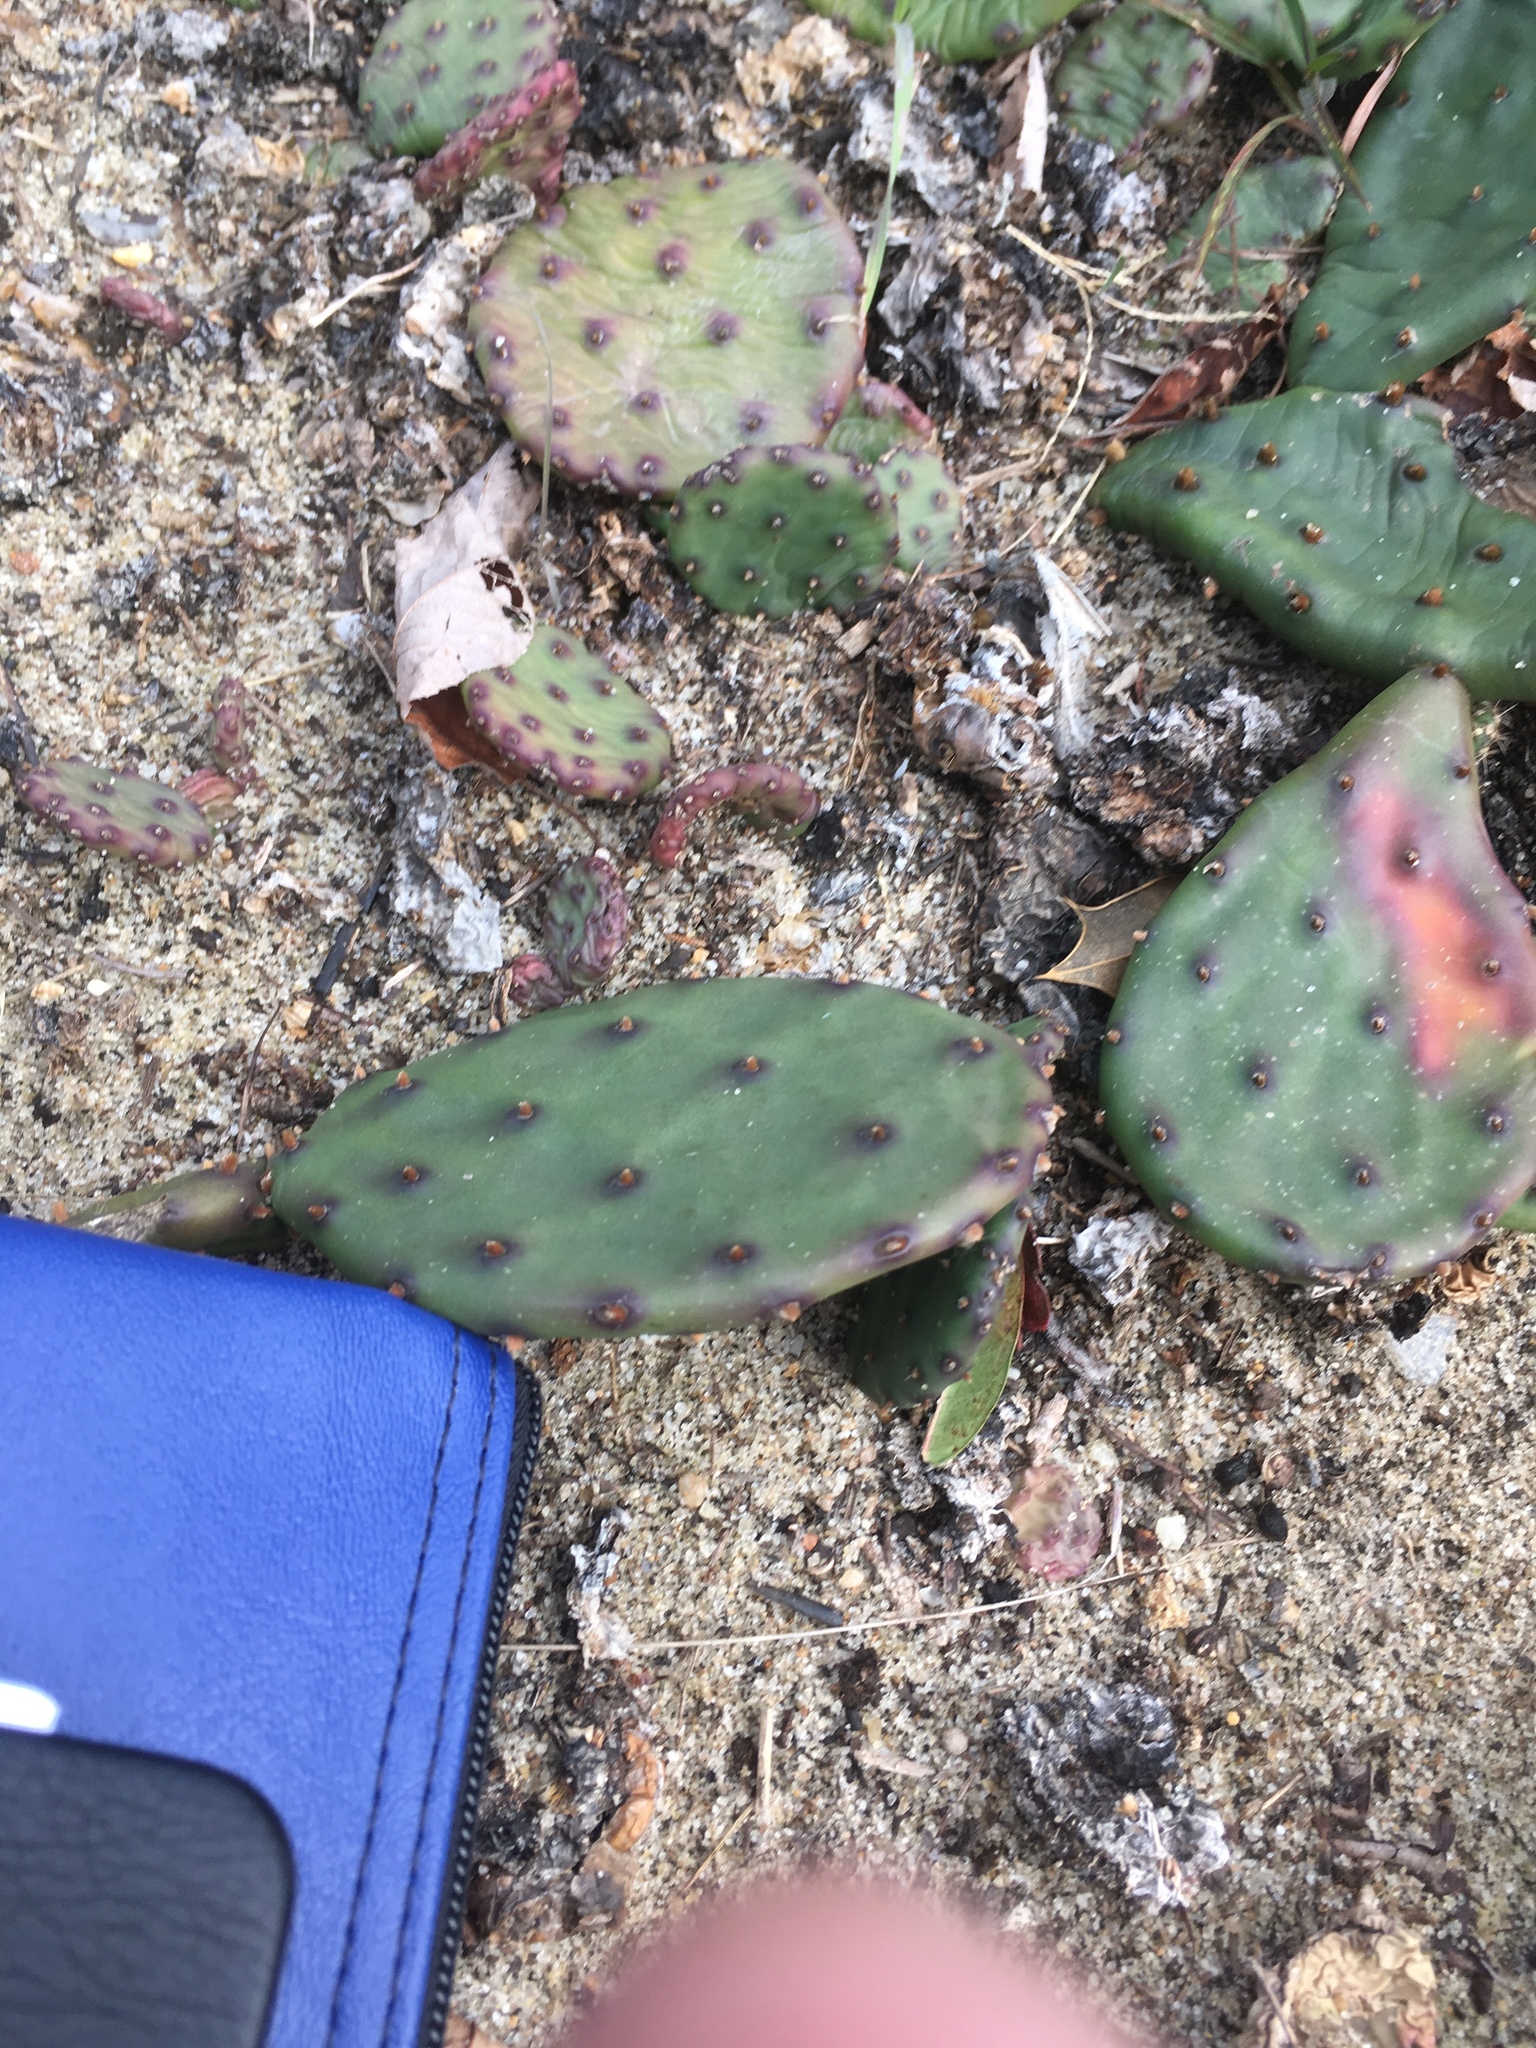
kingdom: Plantae
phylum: Tracheophyta
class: Magnoliopsida
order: Caryophyllales
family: Cactaceae
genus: Opuntia
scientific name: Opuntia humifusa
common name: Eastern prickly-pear
